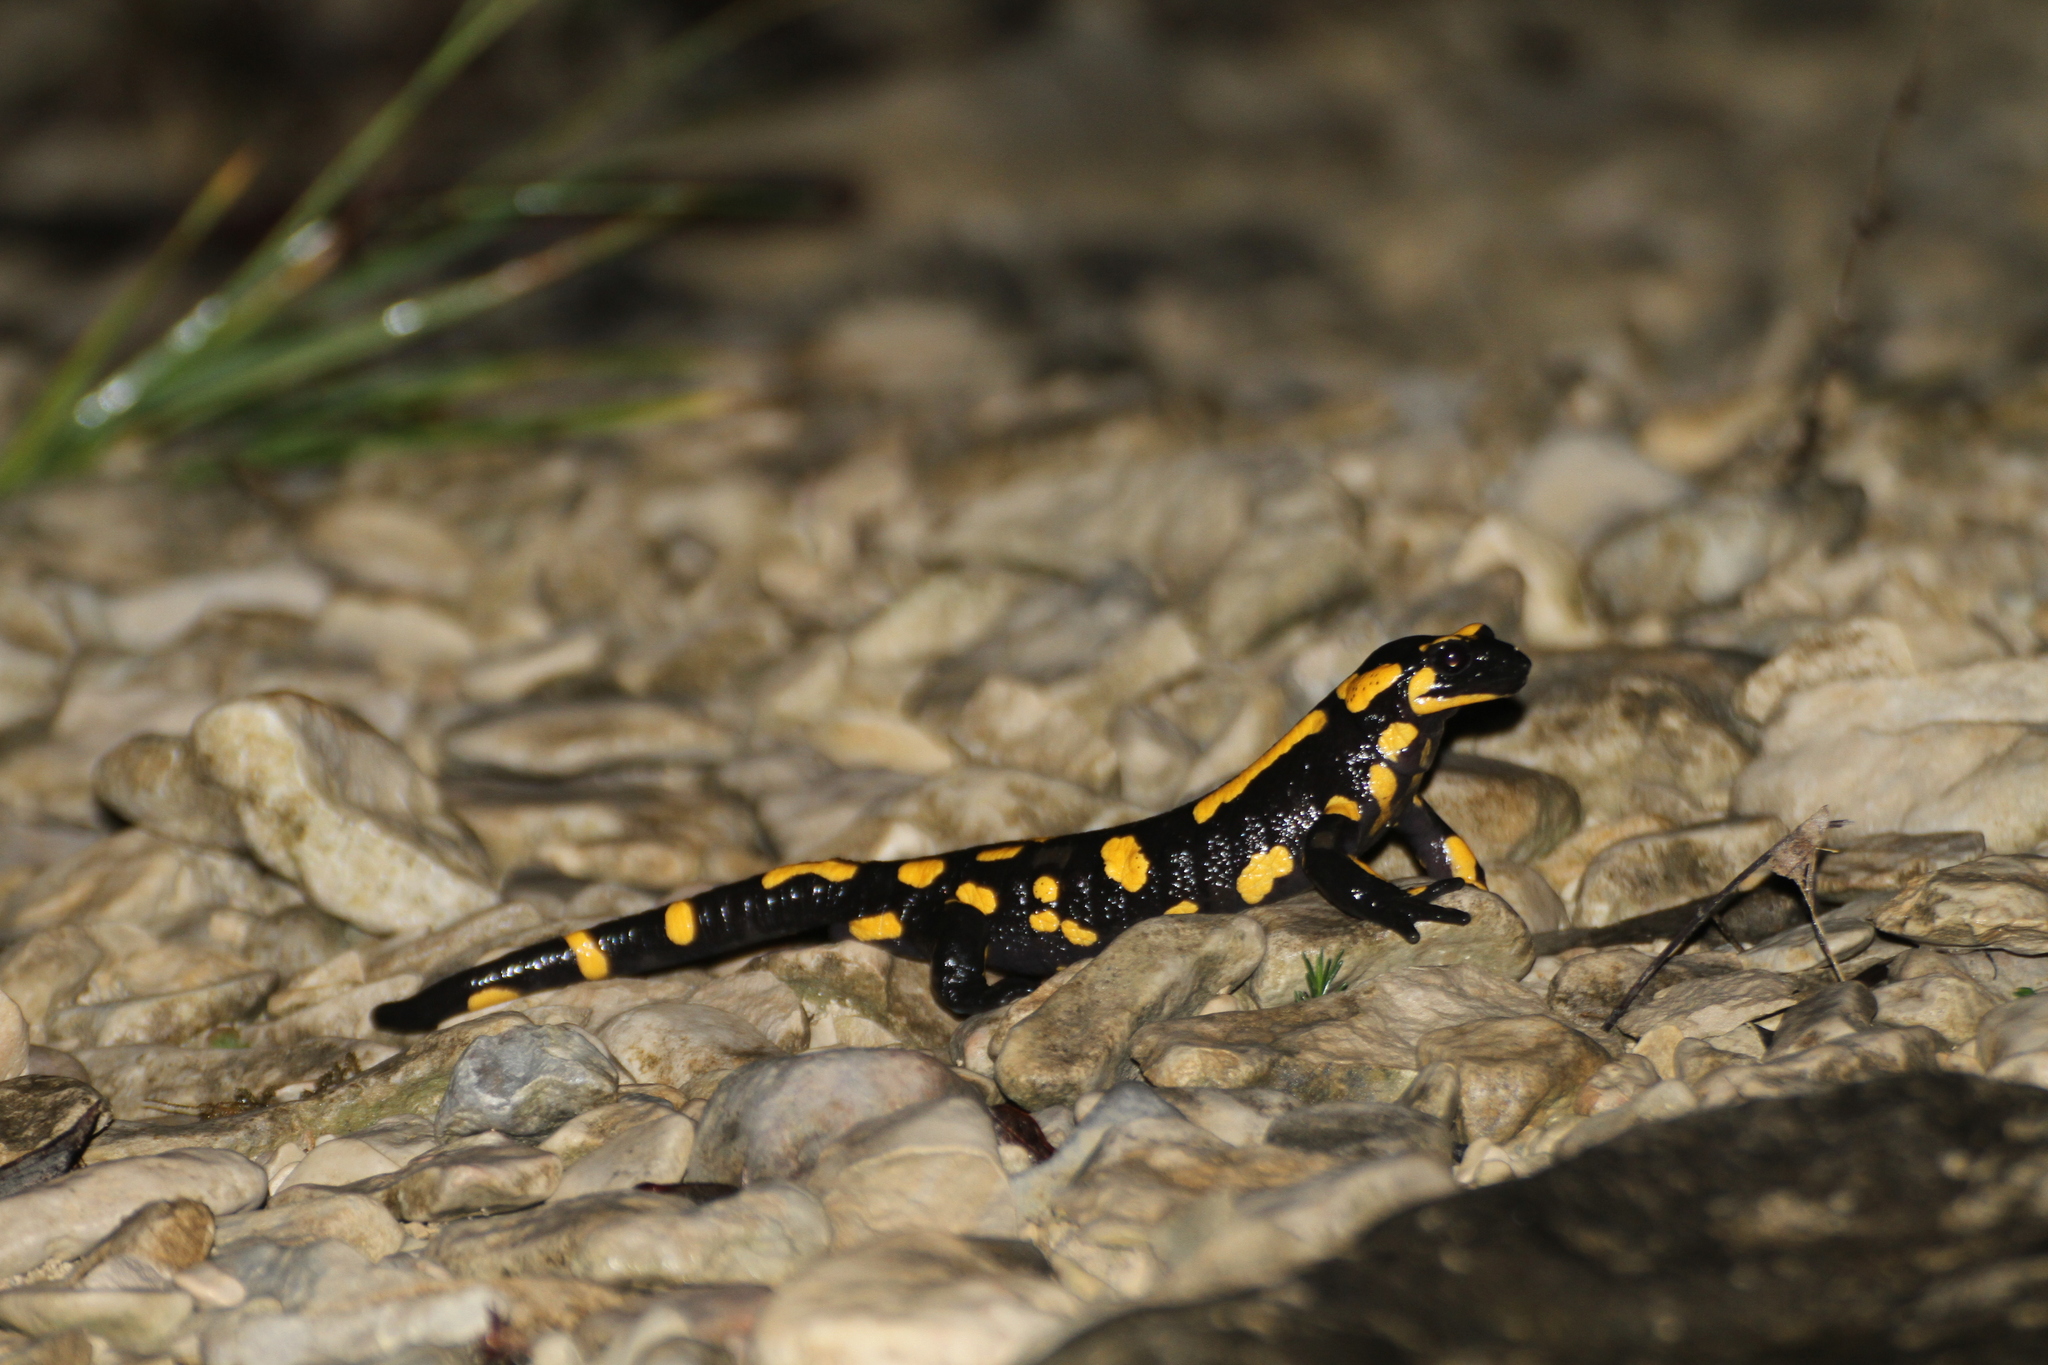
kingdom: Animalia
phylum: Chordata
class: Amphibia
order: Caudata
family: Salamandridae
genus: Salamandra
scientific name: Salamandra salamandra
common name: Fire salamander
